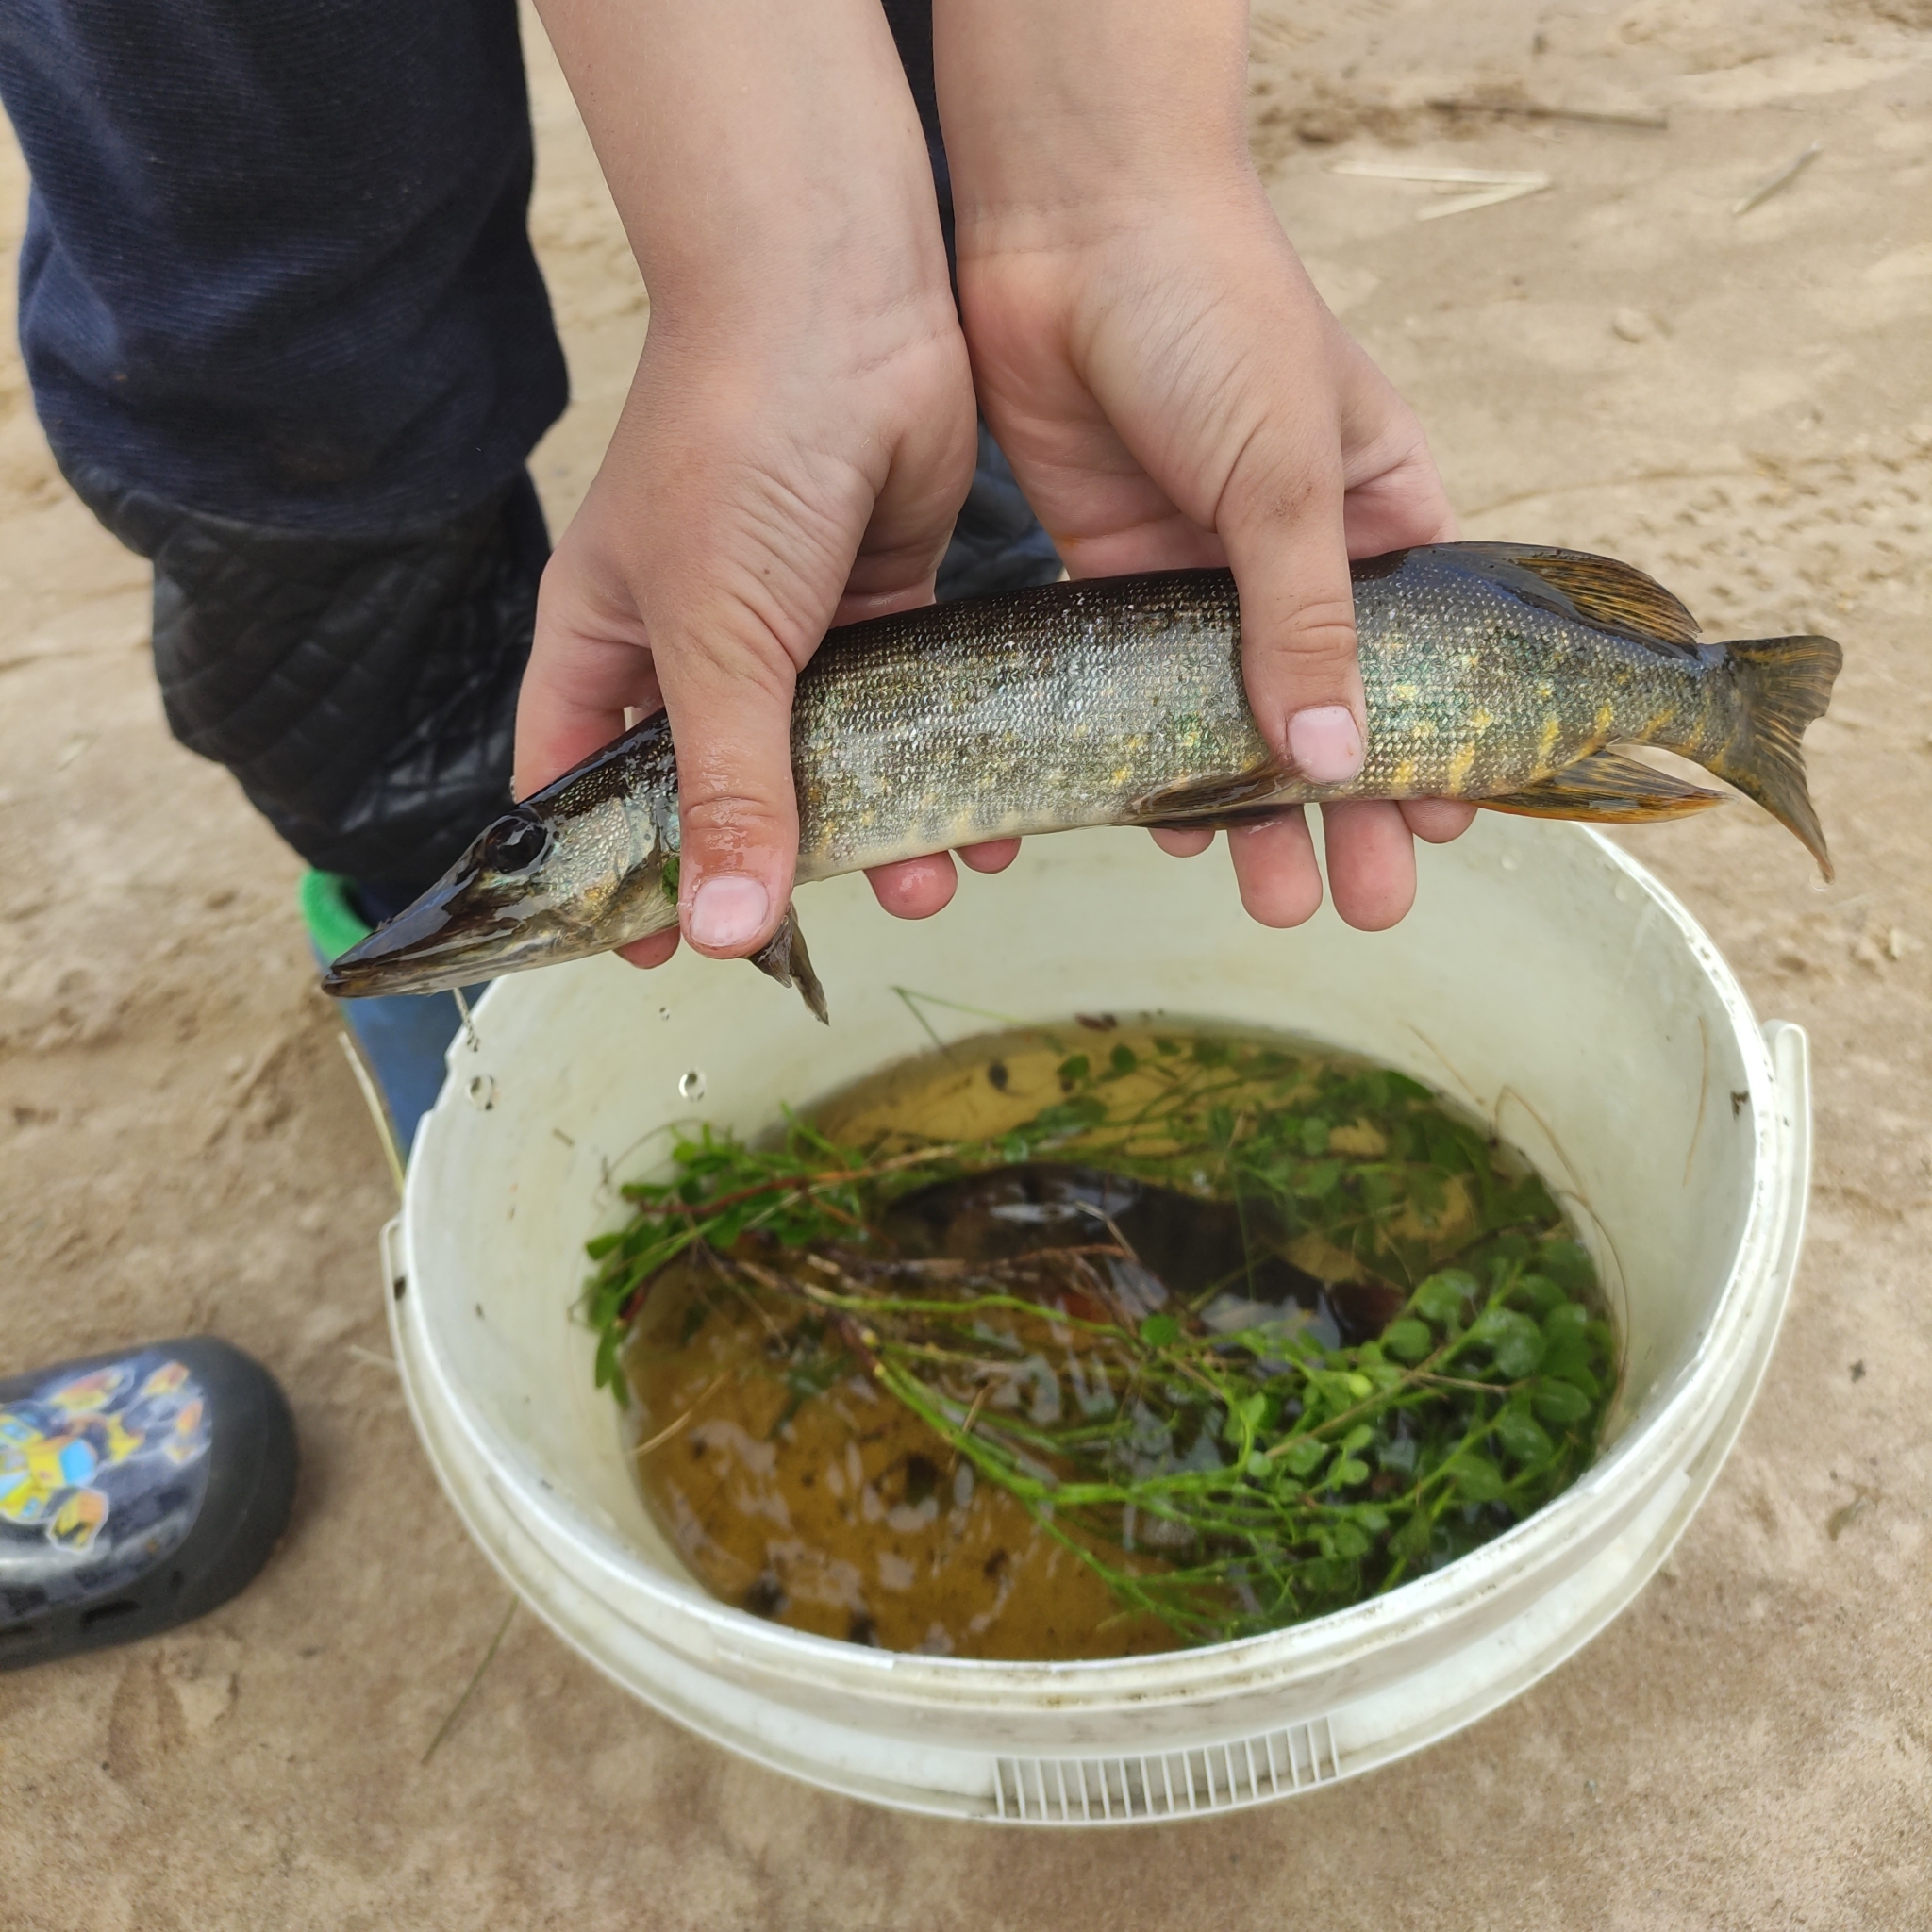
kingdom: Animalia
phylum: Chordata
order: Esociformes
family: Esocidae
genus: Esox
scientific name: Esox lucius
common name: Northern pike
